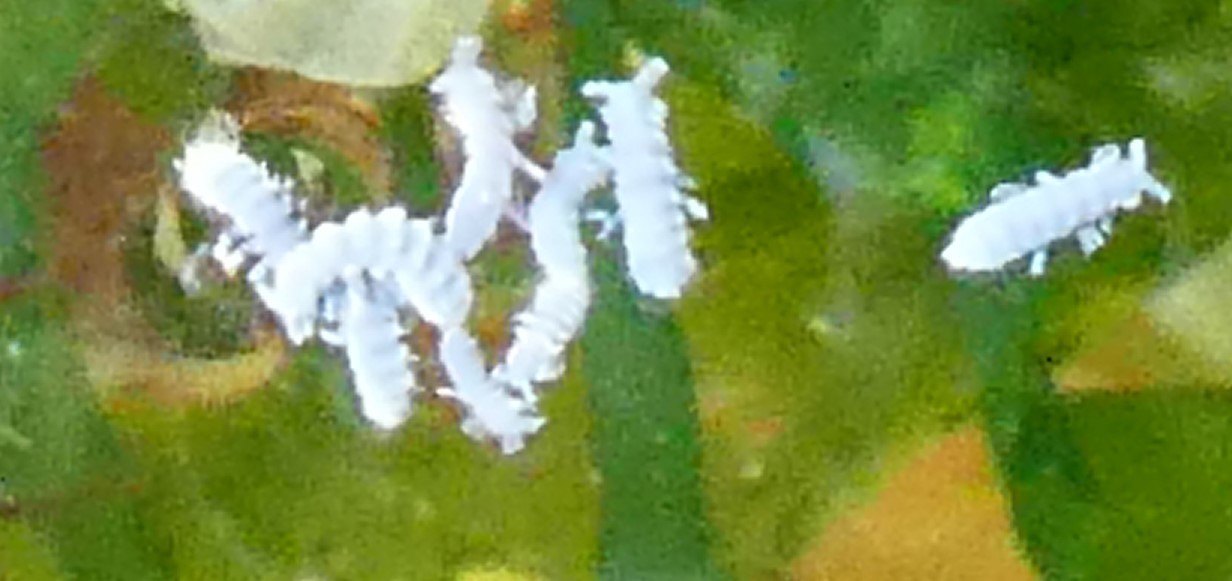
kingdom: Animalia
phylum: Arthropoda
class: Collembola
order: Poduromorpha
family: Neanuridae
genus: Anurida
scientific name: Anurida maritima
